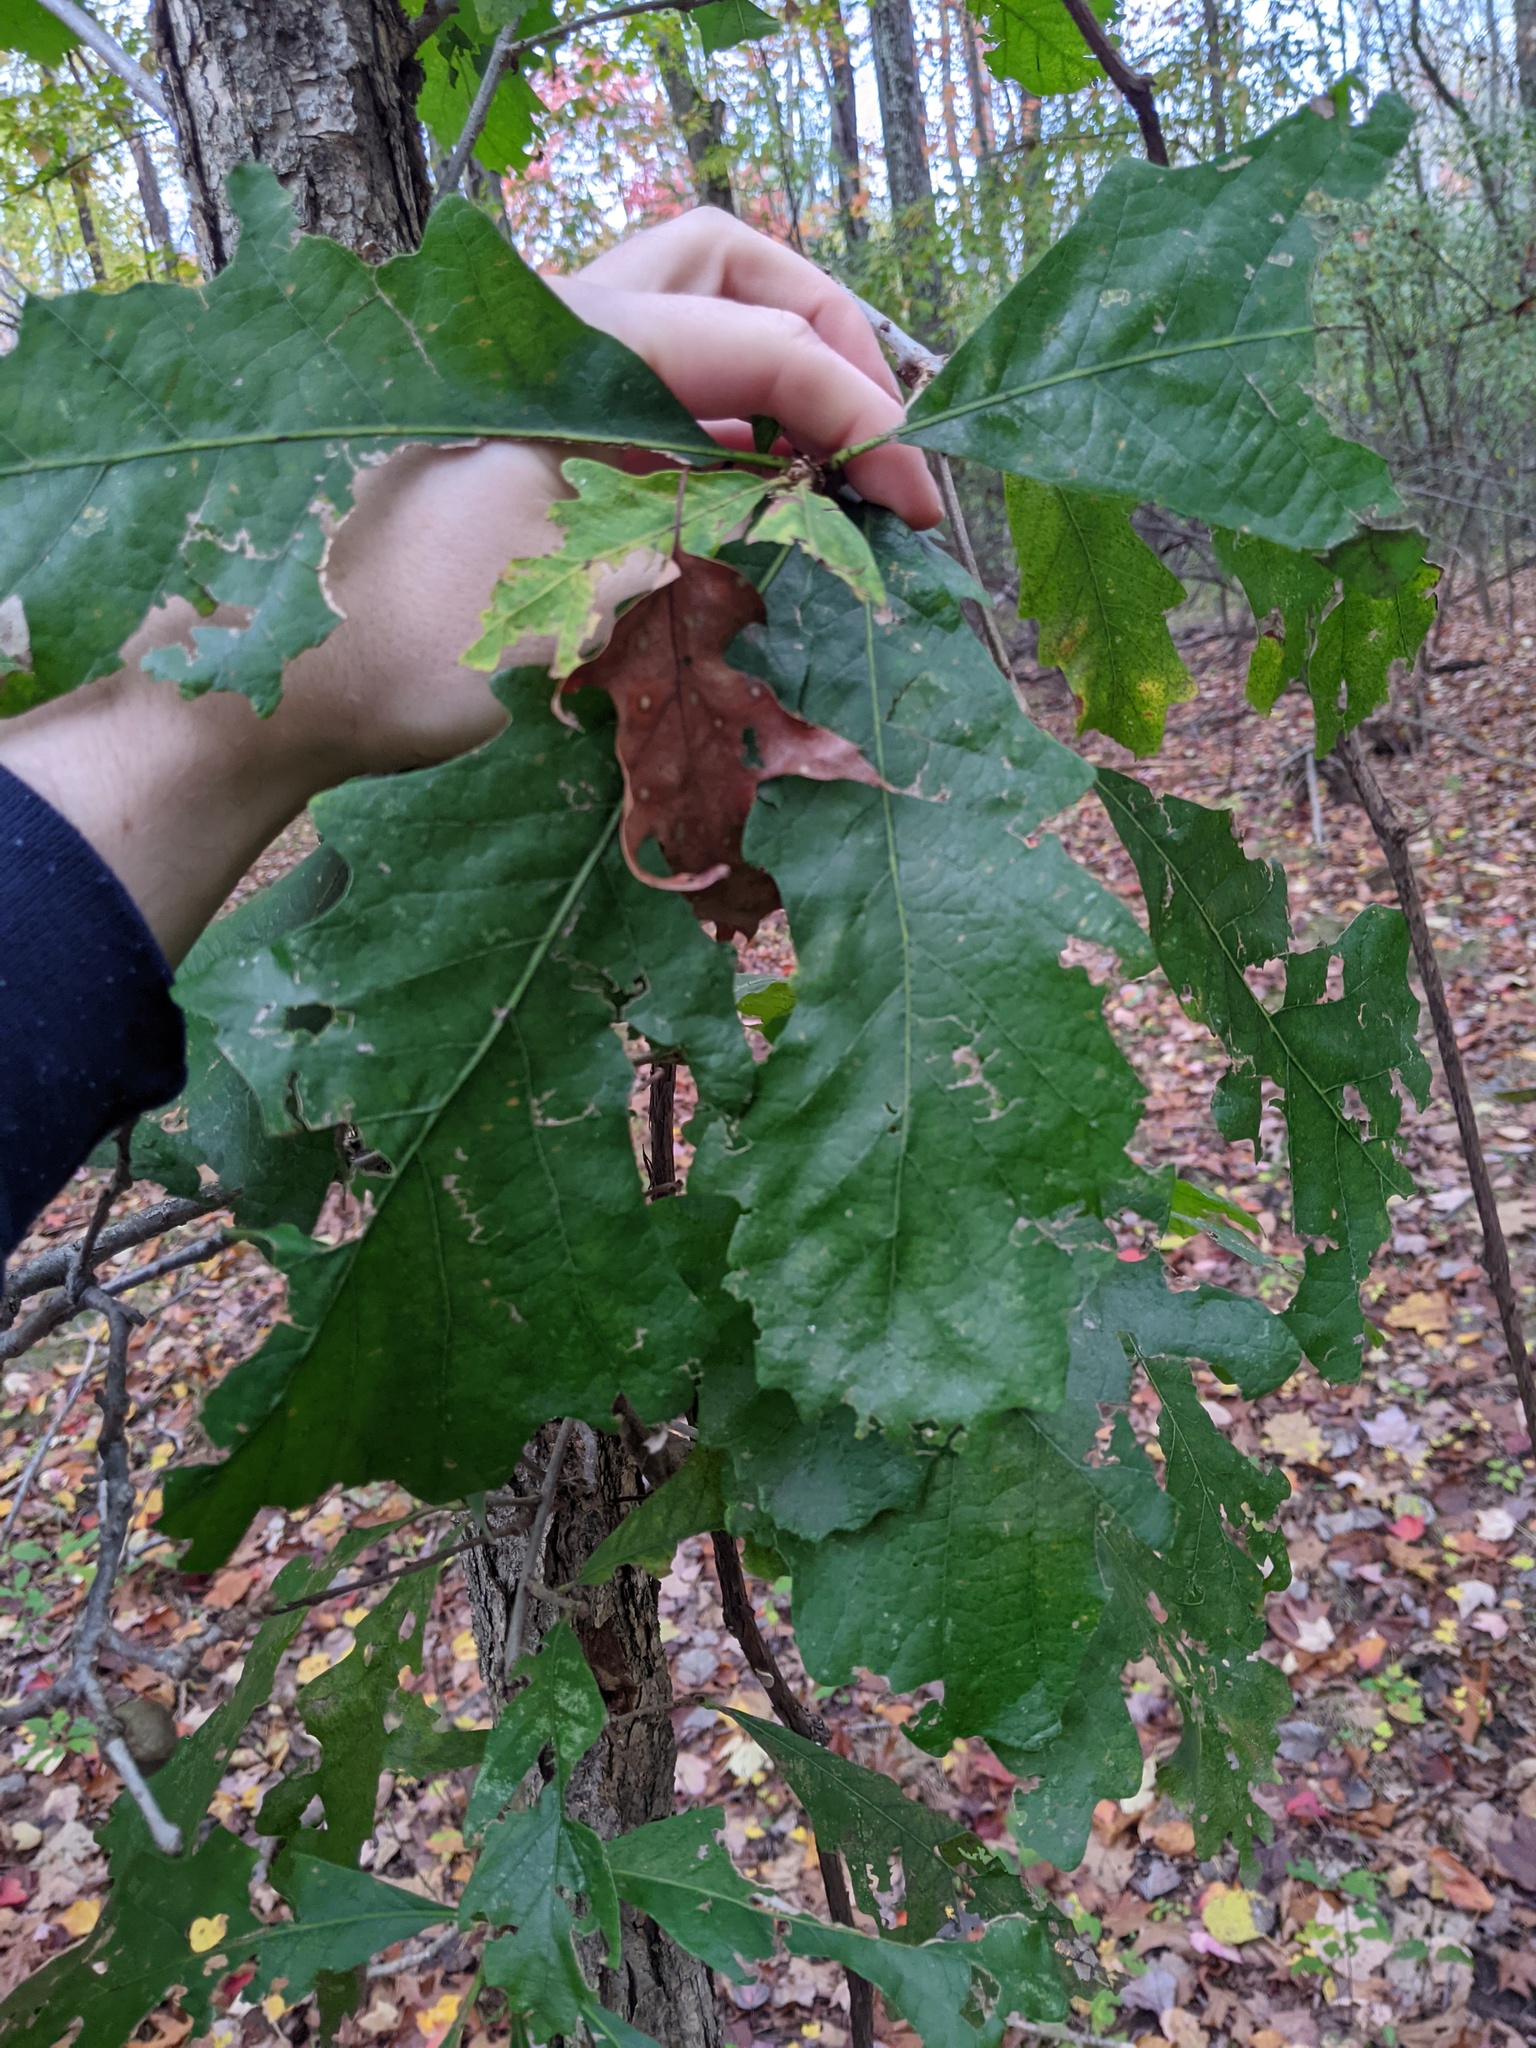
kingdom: Plantae
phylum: Tracheophyta
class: Magnoliopsida
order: Fagales
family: Fagaceae
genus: Quercus
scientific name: Quercus bicolor
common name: Swamp white oak
